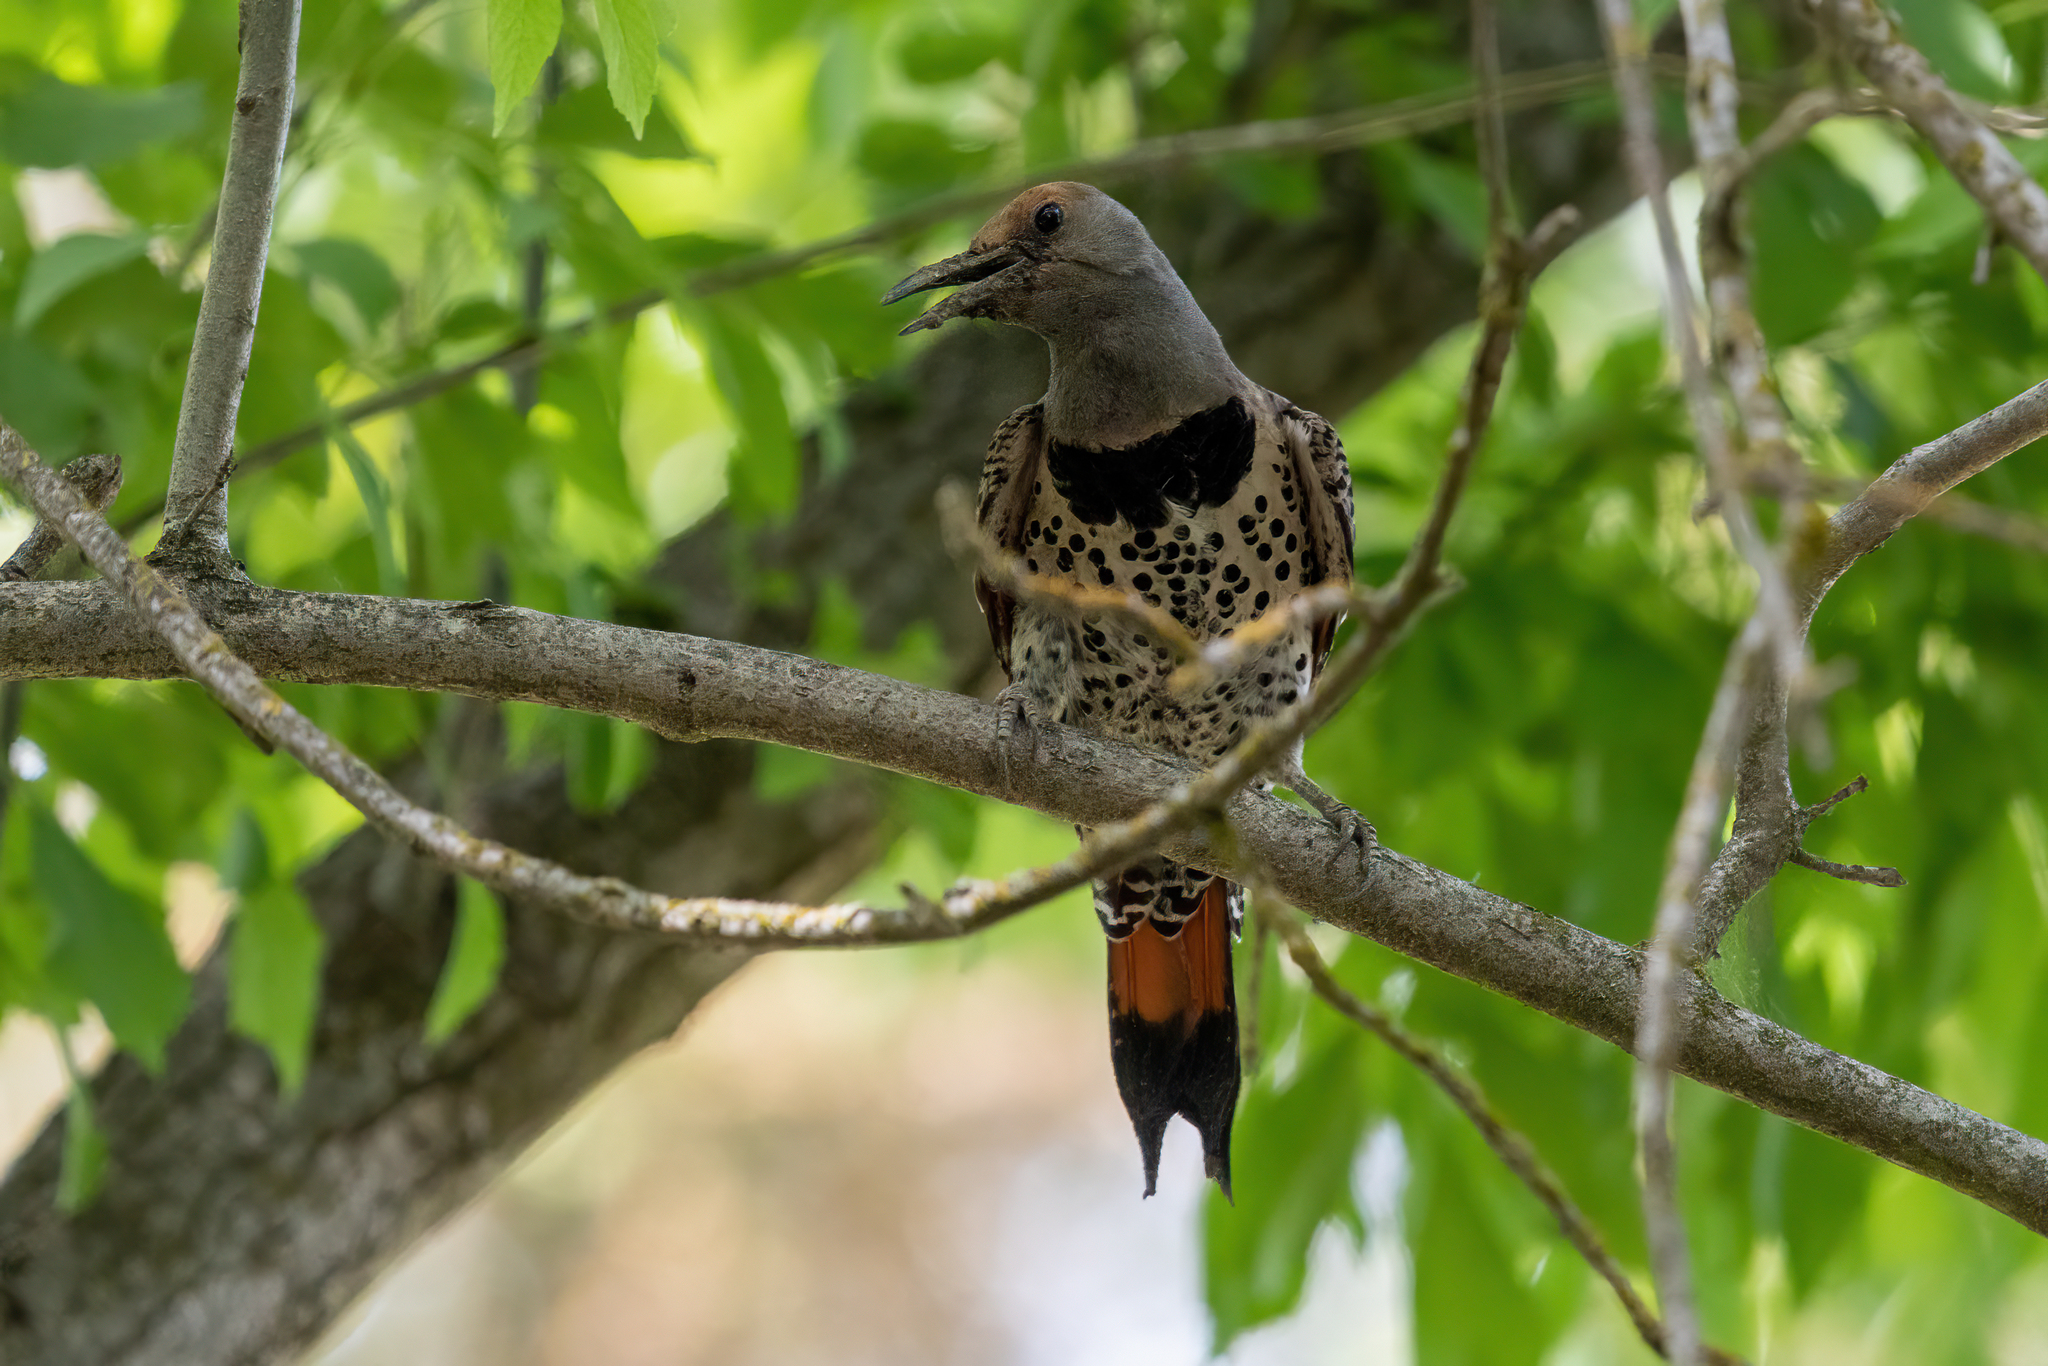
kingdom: Animalia
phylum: Chordata
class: Aves
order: Piciformes
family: Picidae
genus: Colaptes
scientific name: Colaptes auratus
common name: Northern flicker
